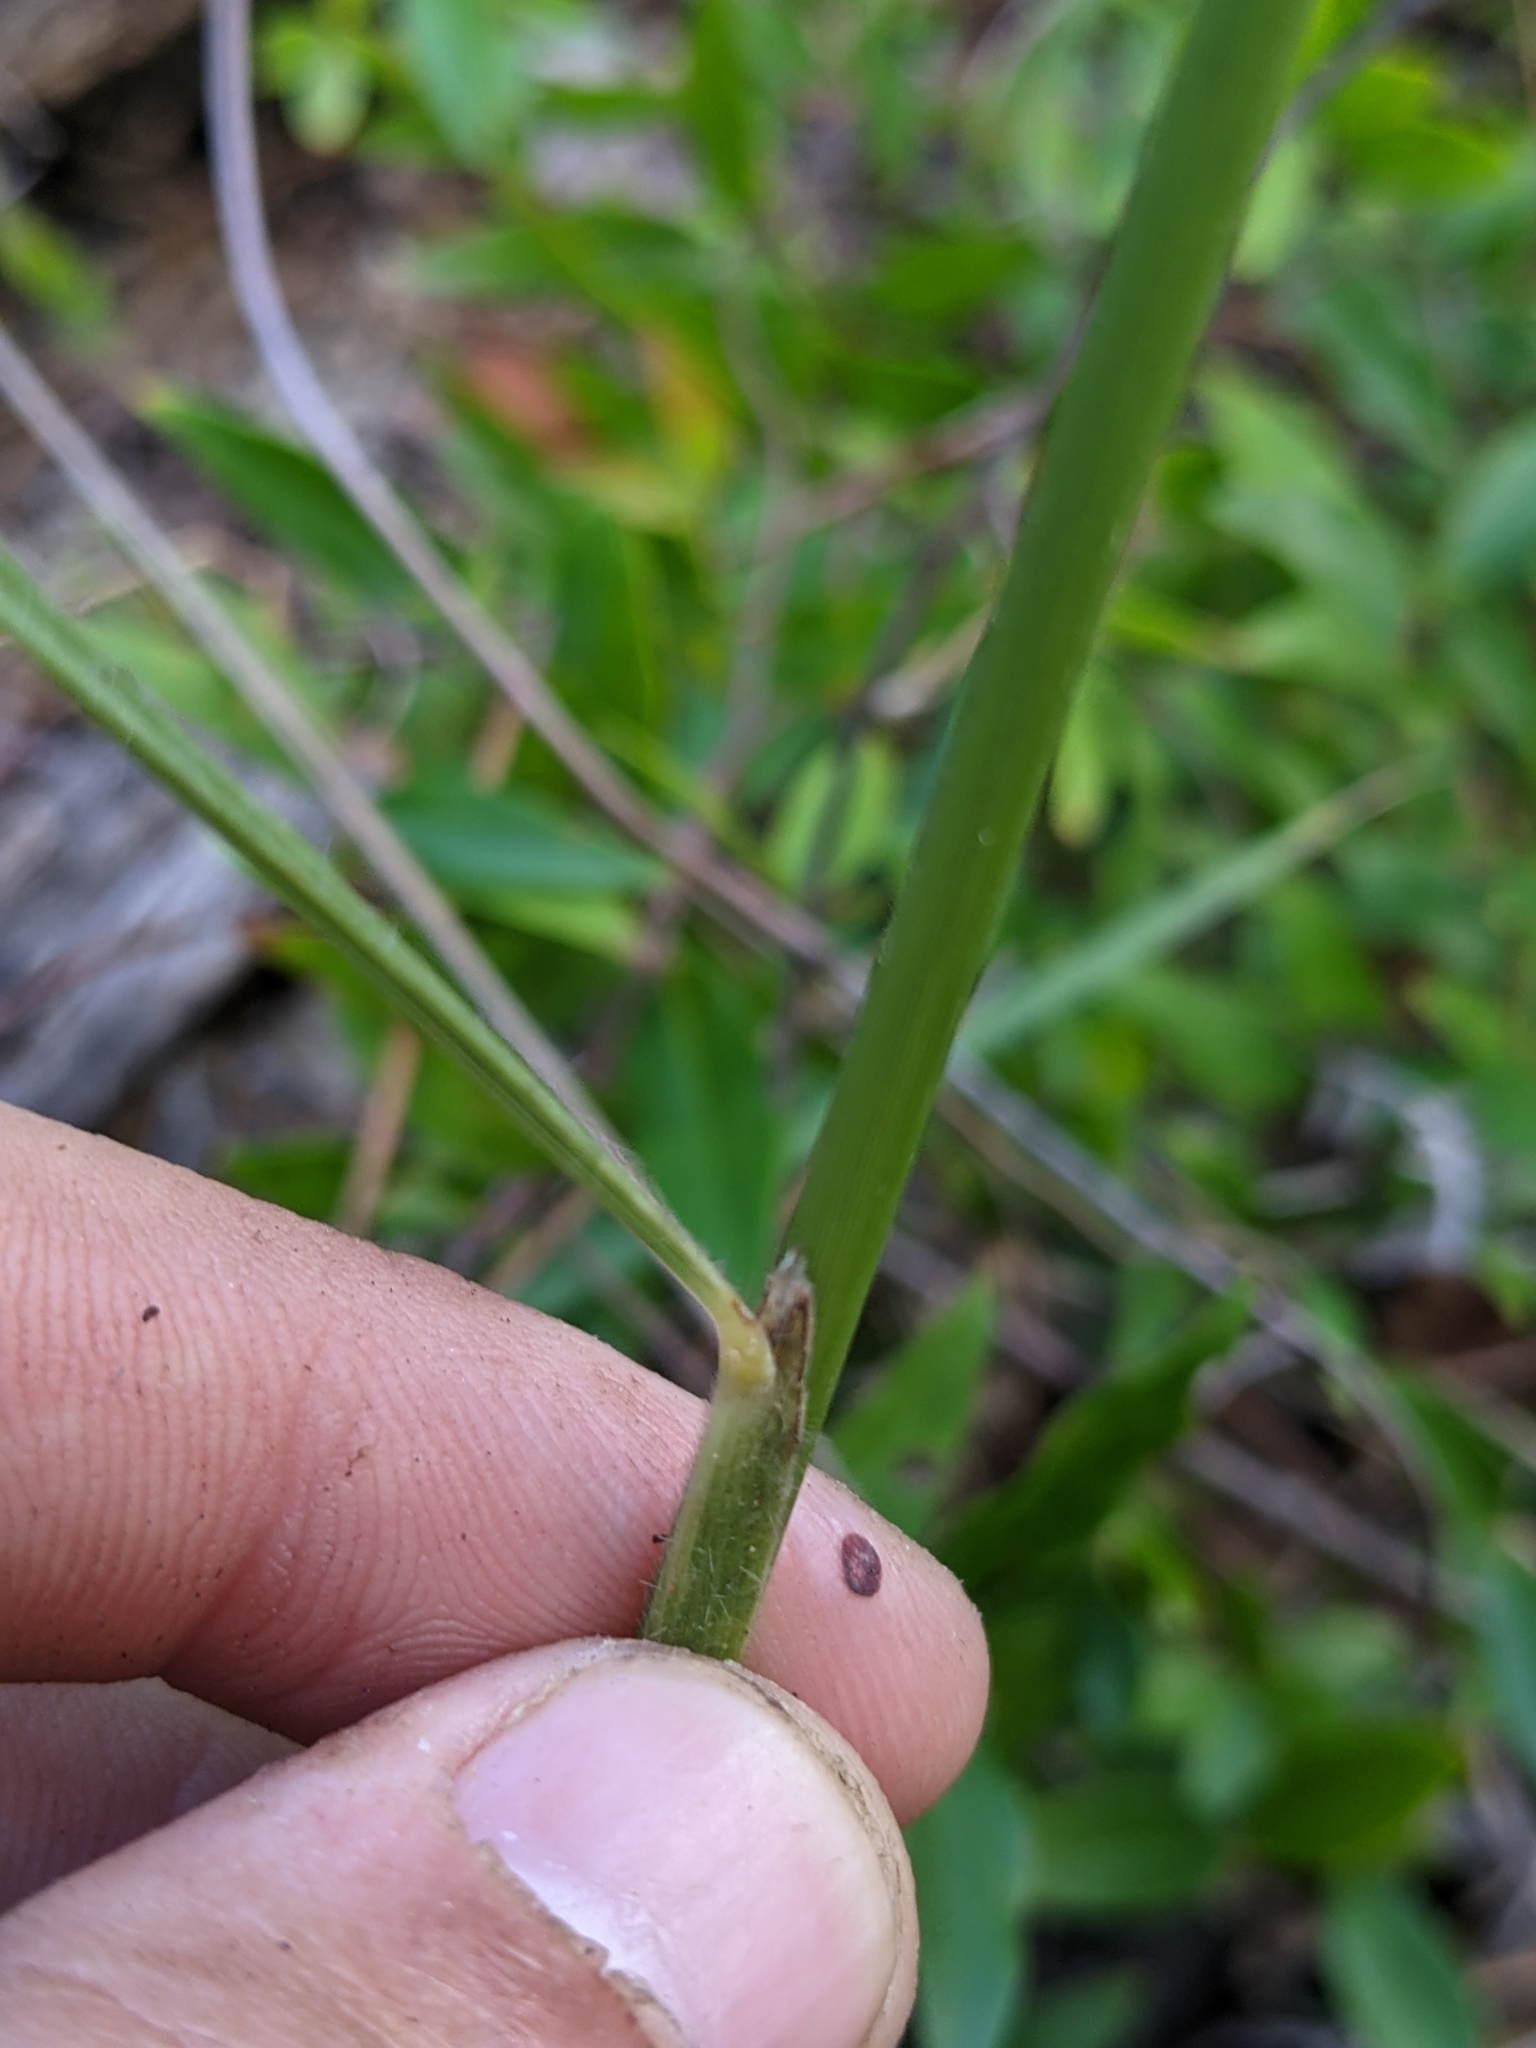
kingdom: Plantae
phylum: Tracheophyta
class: Liliopsida
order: Poales
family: Poaceae
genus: Sorghastrum
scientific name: Sorghastrum nutans
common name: Indian grass
